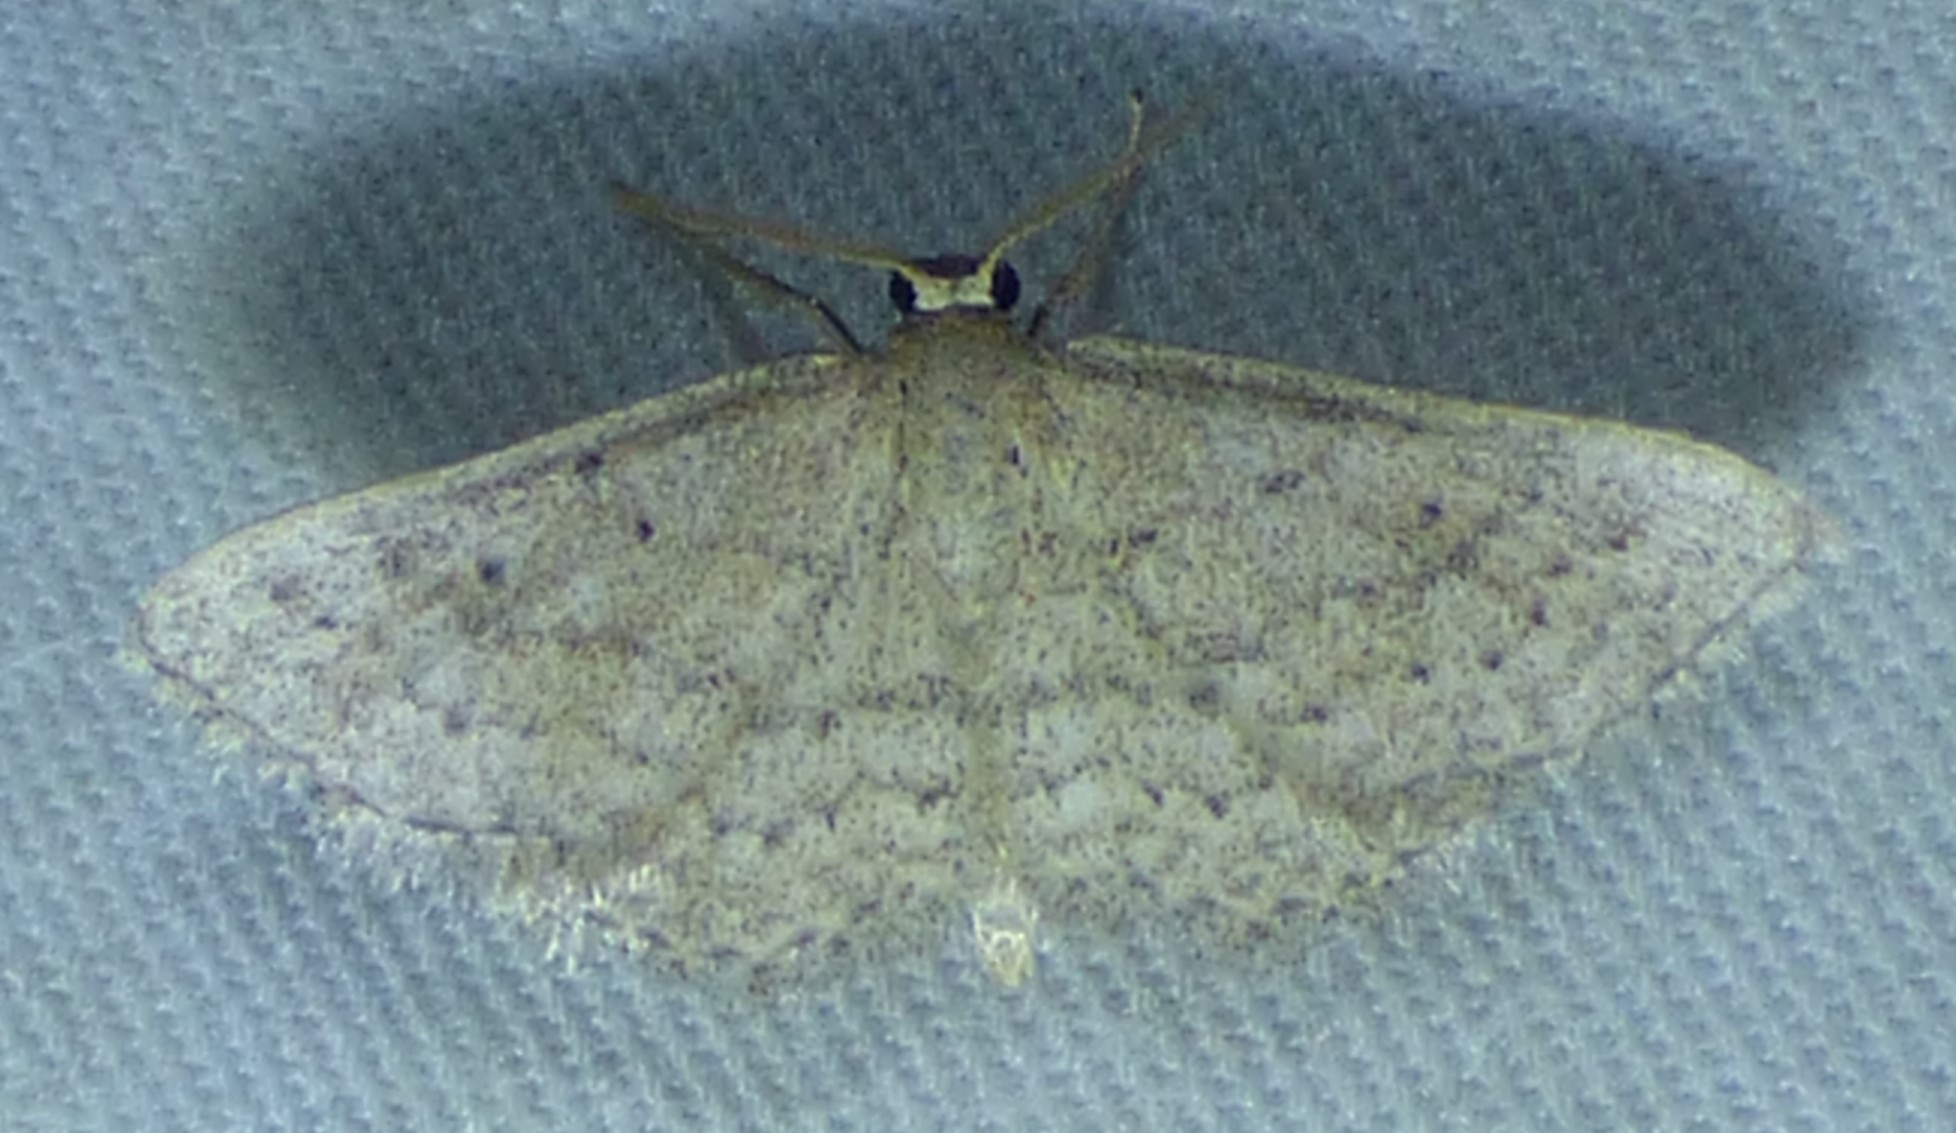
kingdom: Animalia
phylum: Arthropoda
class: Insecta
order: Lepidoptera
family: Geometridae
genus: Lobocleta
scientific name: Lobocleta ossularia
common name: Drab brown wave
